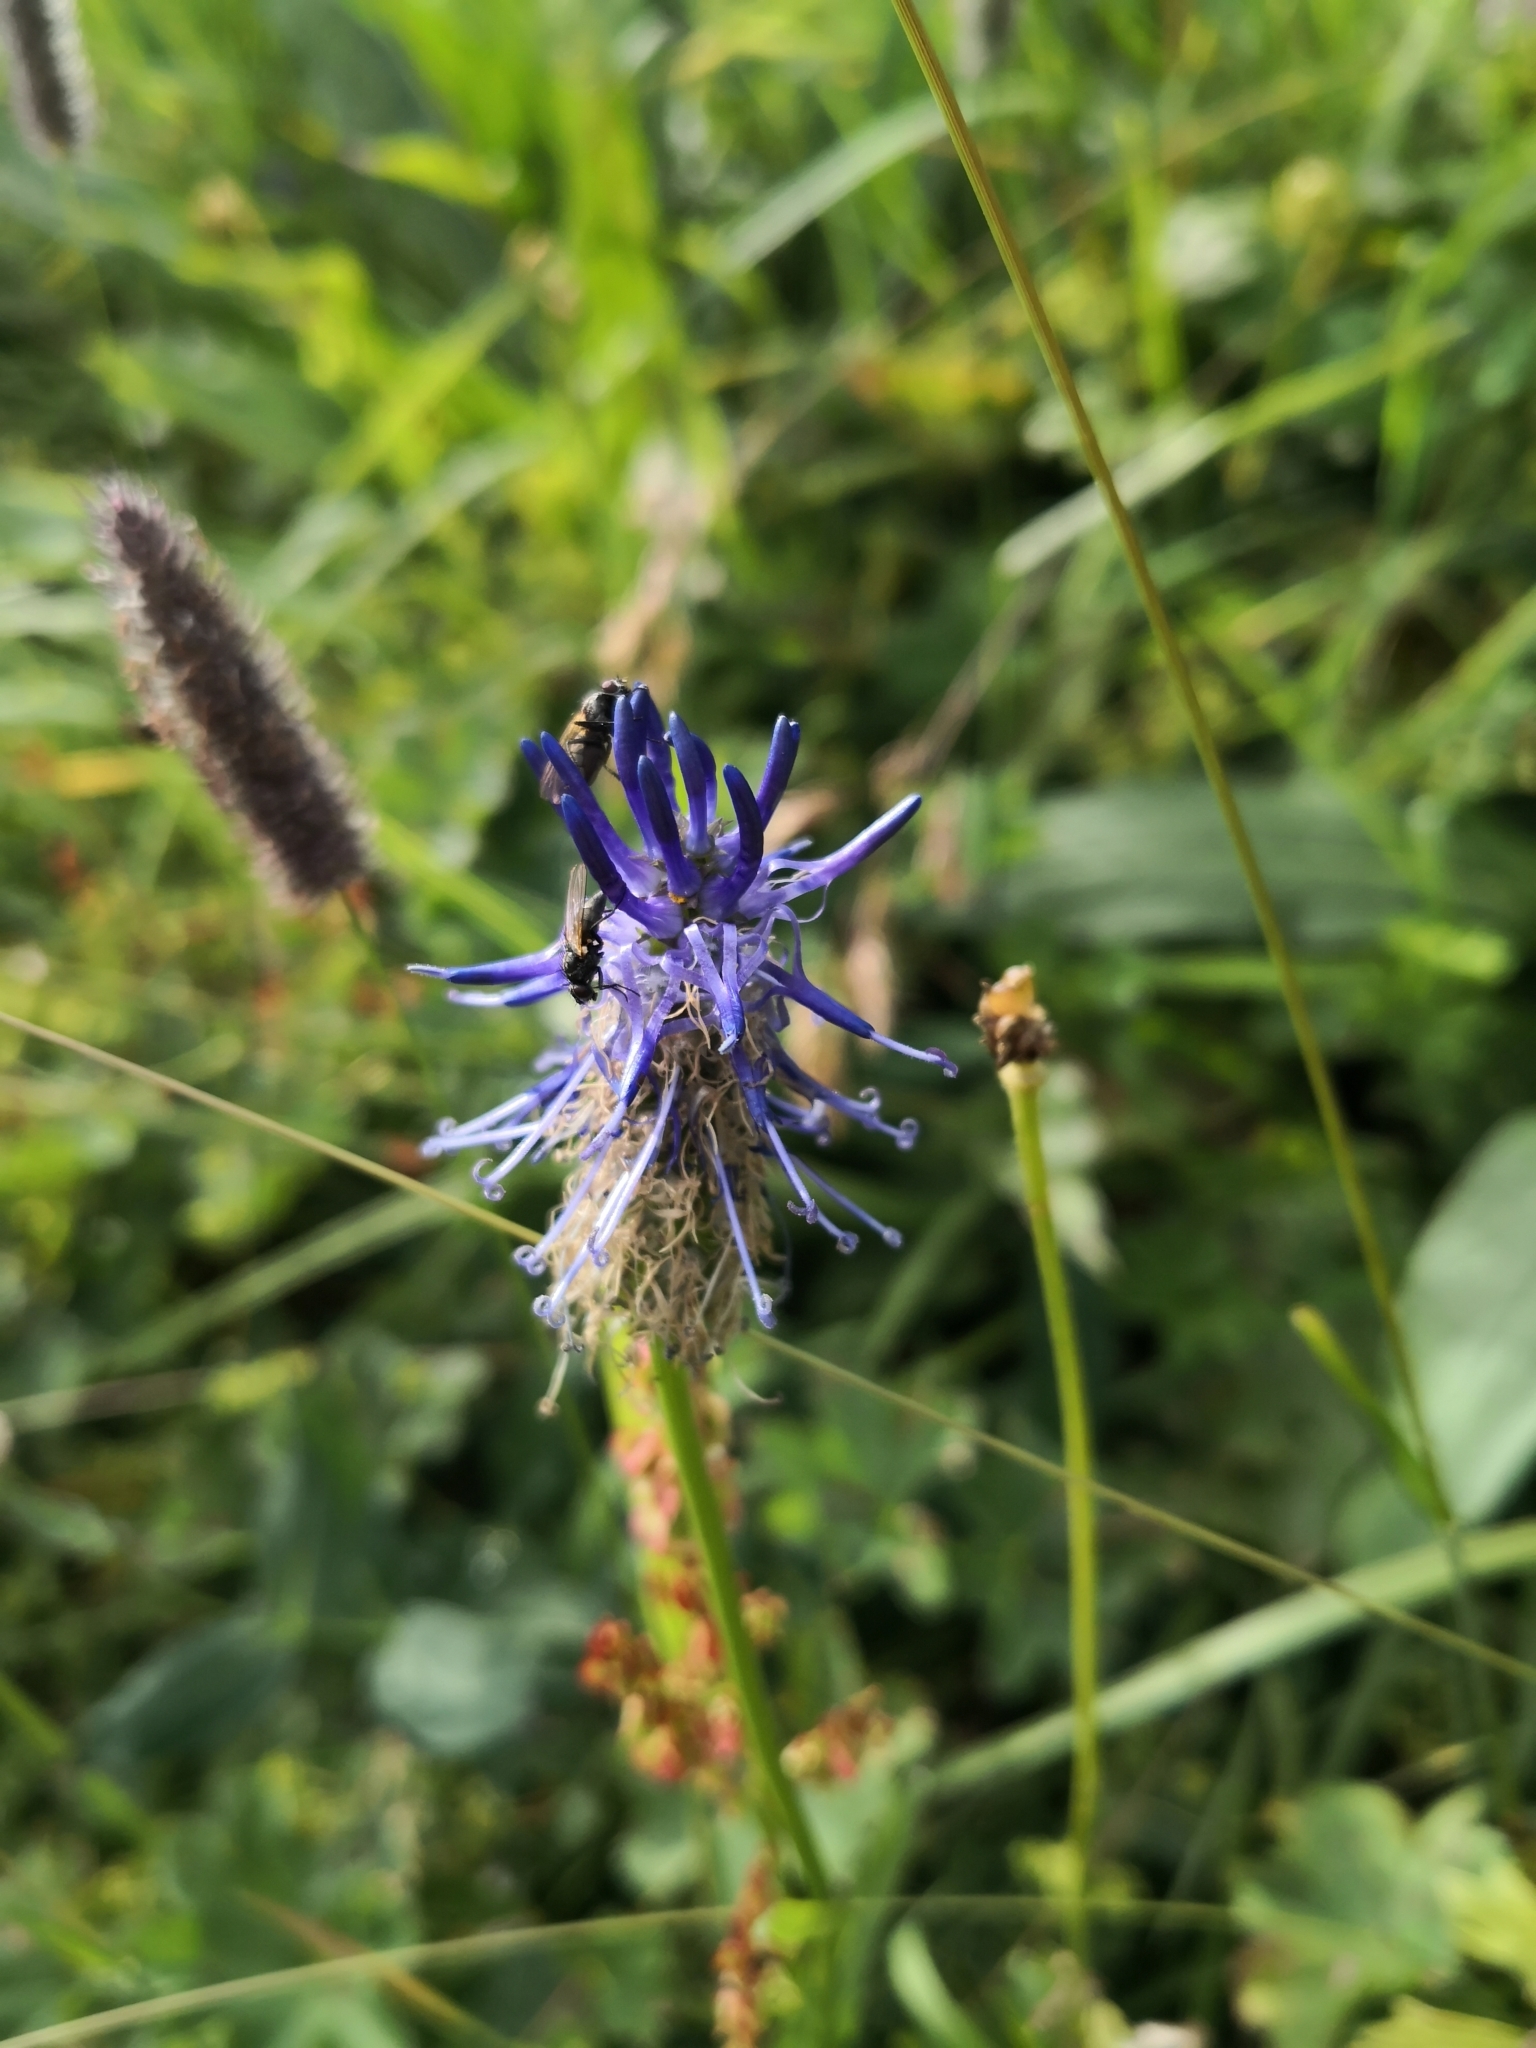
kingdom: Plantae
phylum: Tracheophyta
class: Magnoliopsida
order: Asterales
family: Campanulaceae
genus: Phyteuma
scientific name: Phyteuma persicifolium
